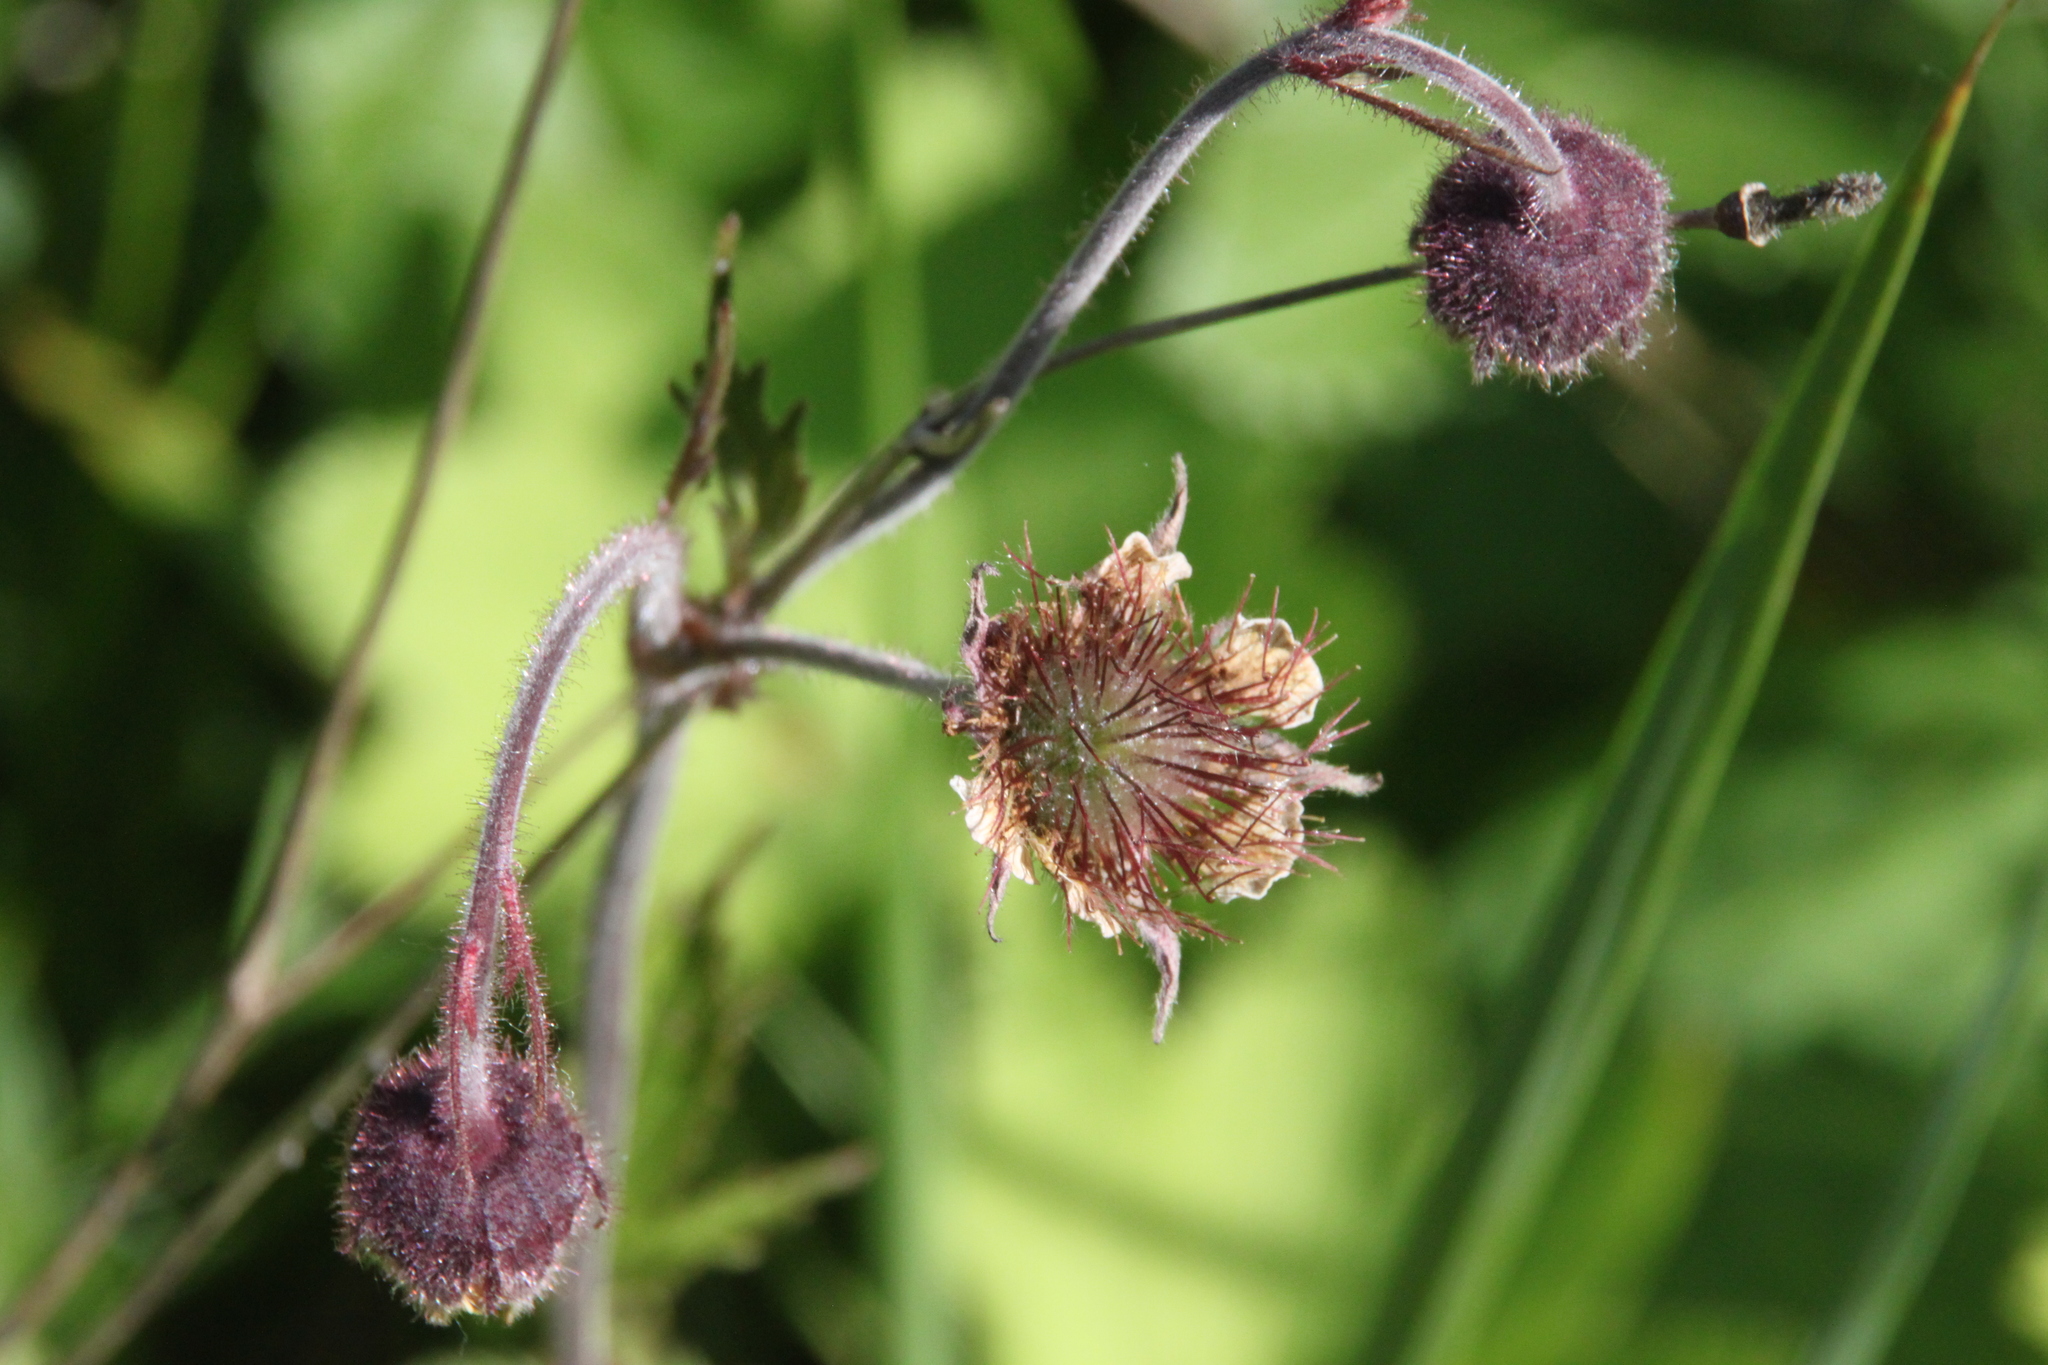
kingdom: Plantae
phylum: Tracheophyta
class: Magnoliopsida
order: Rosales
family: Rosaceae
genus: Geum
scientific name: Geum rivale
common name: Water avens
